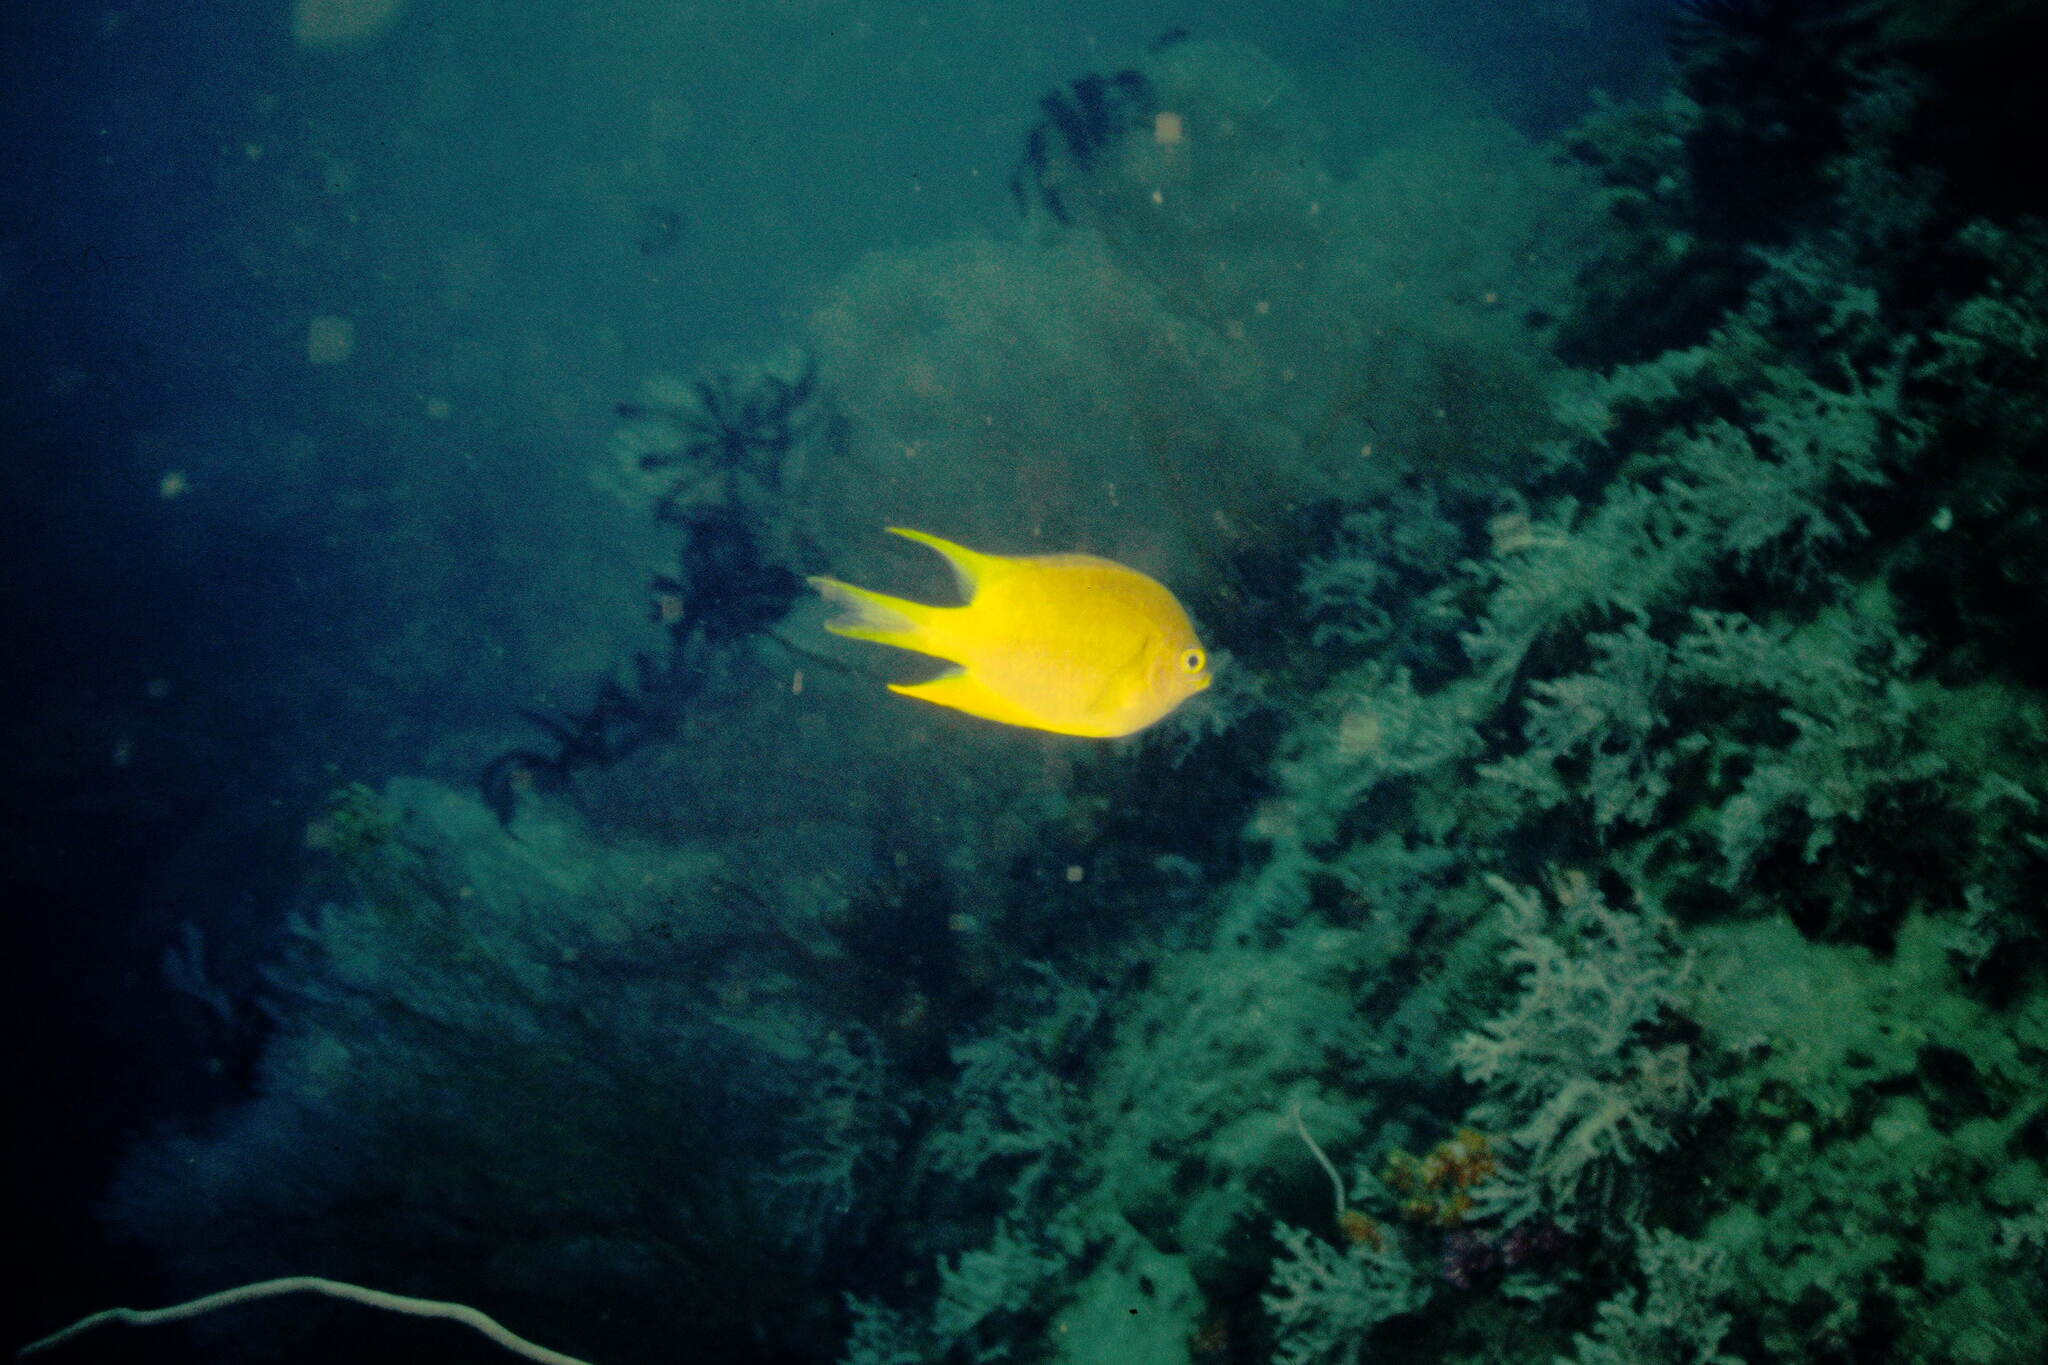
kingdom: Animalia
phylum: Chordata
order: Perciformes
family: Pomacentridae
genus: Amblyglyphidodon
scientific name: Amblyglyphidodon aureus
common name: Golden damsel
